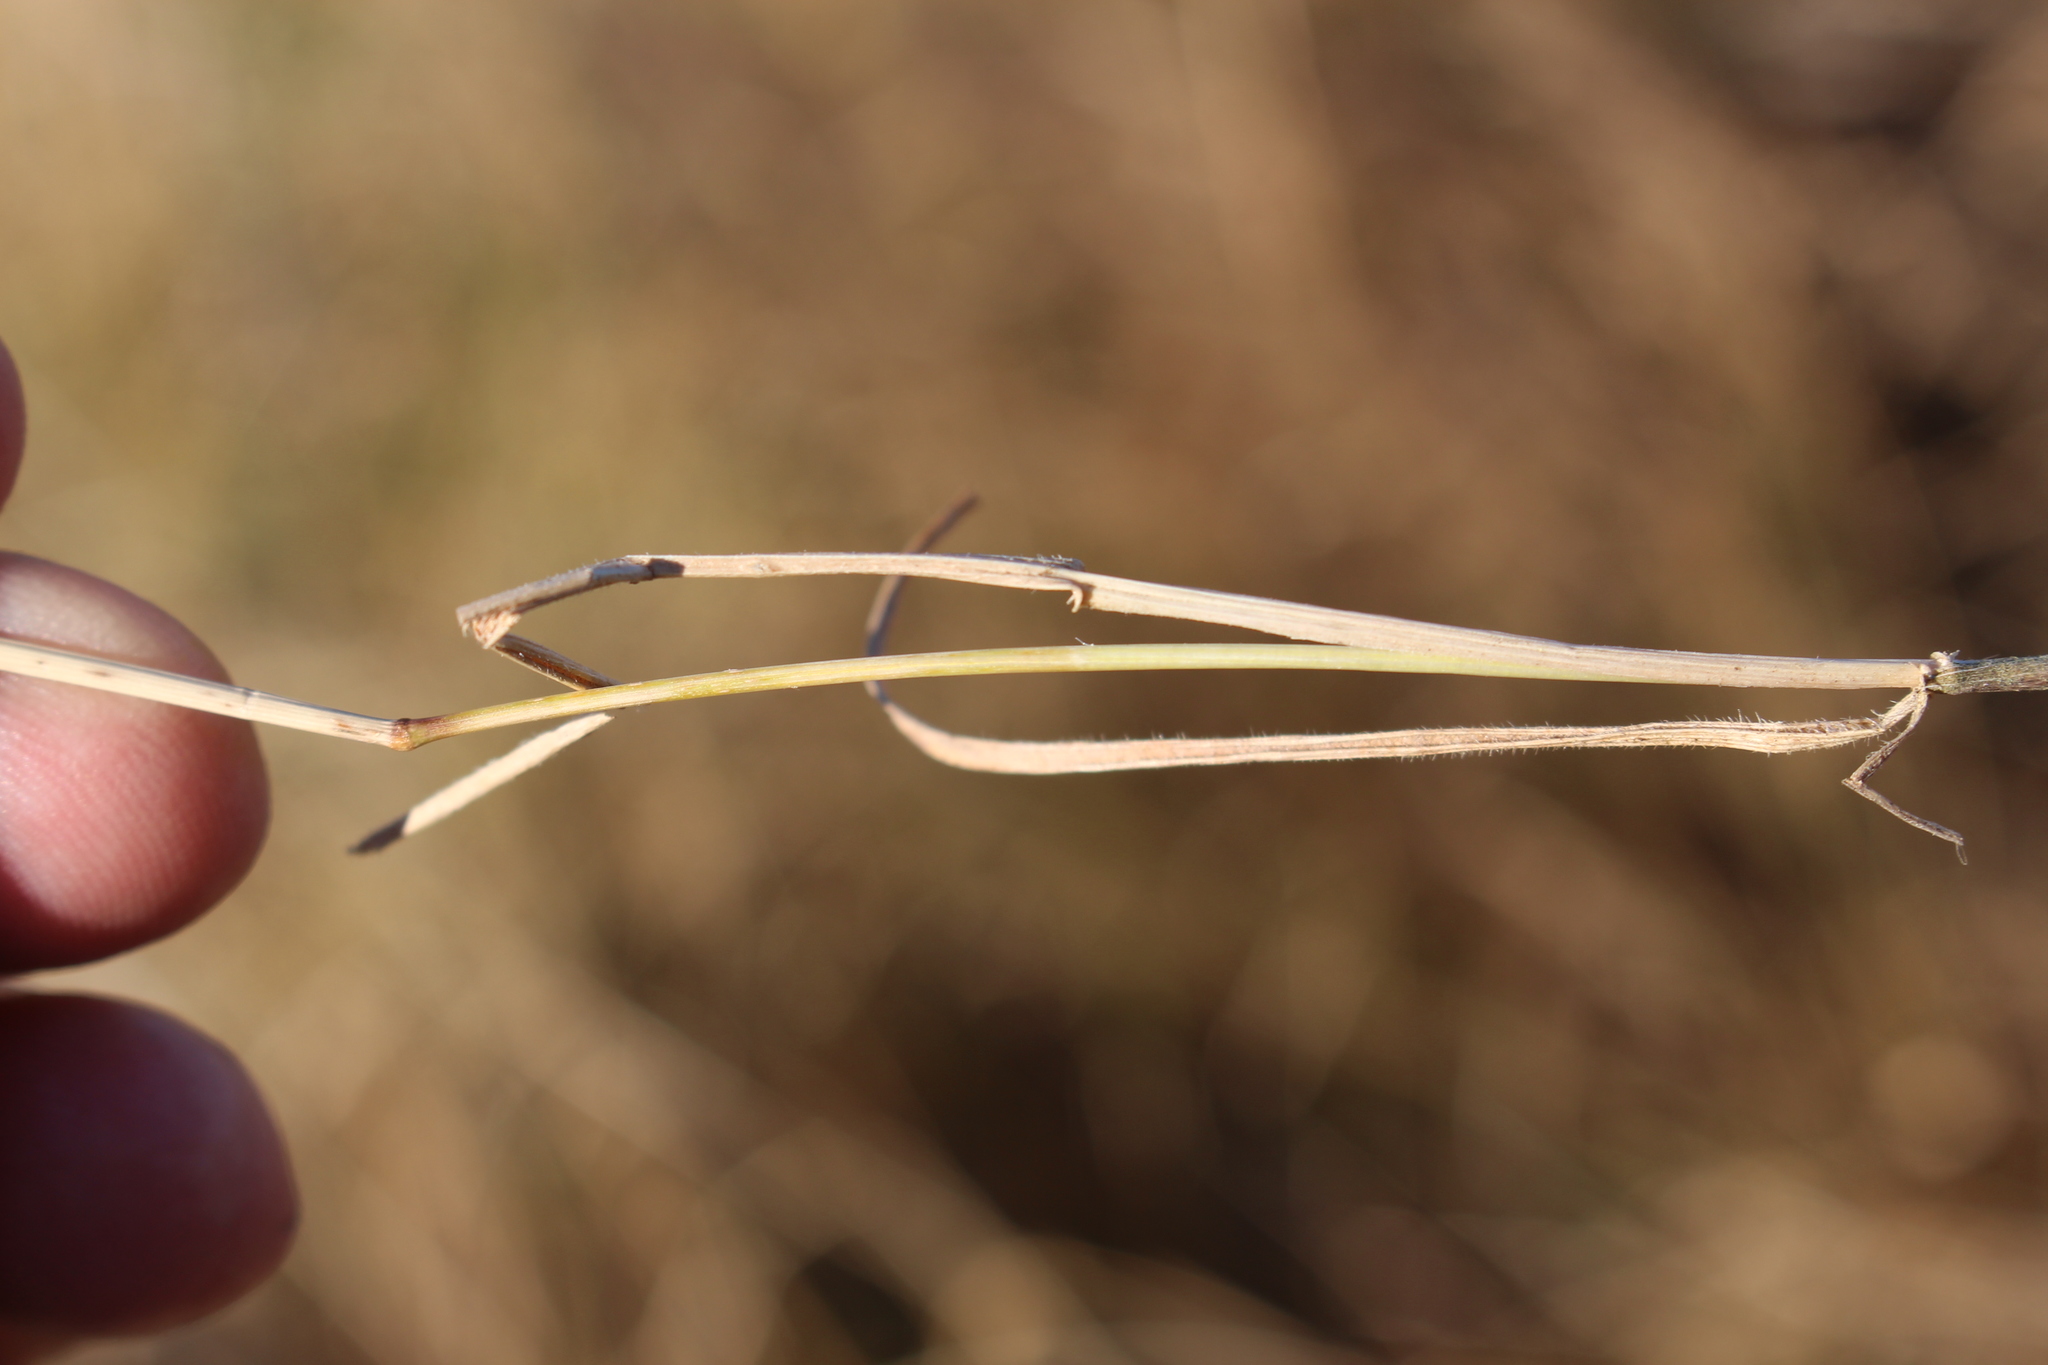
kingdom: Plantae
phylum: Tracheophyta
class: Liliopsida
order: Poales
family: Poaceae
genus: Anthosachne
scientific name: Anthosachne scabra
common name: Common wheatgrass
